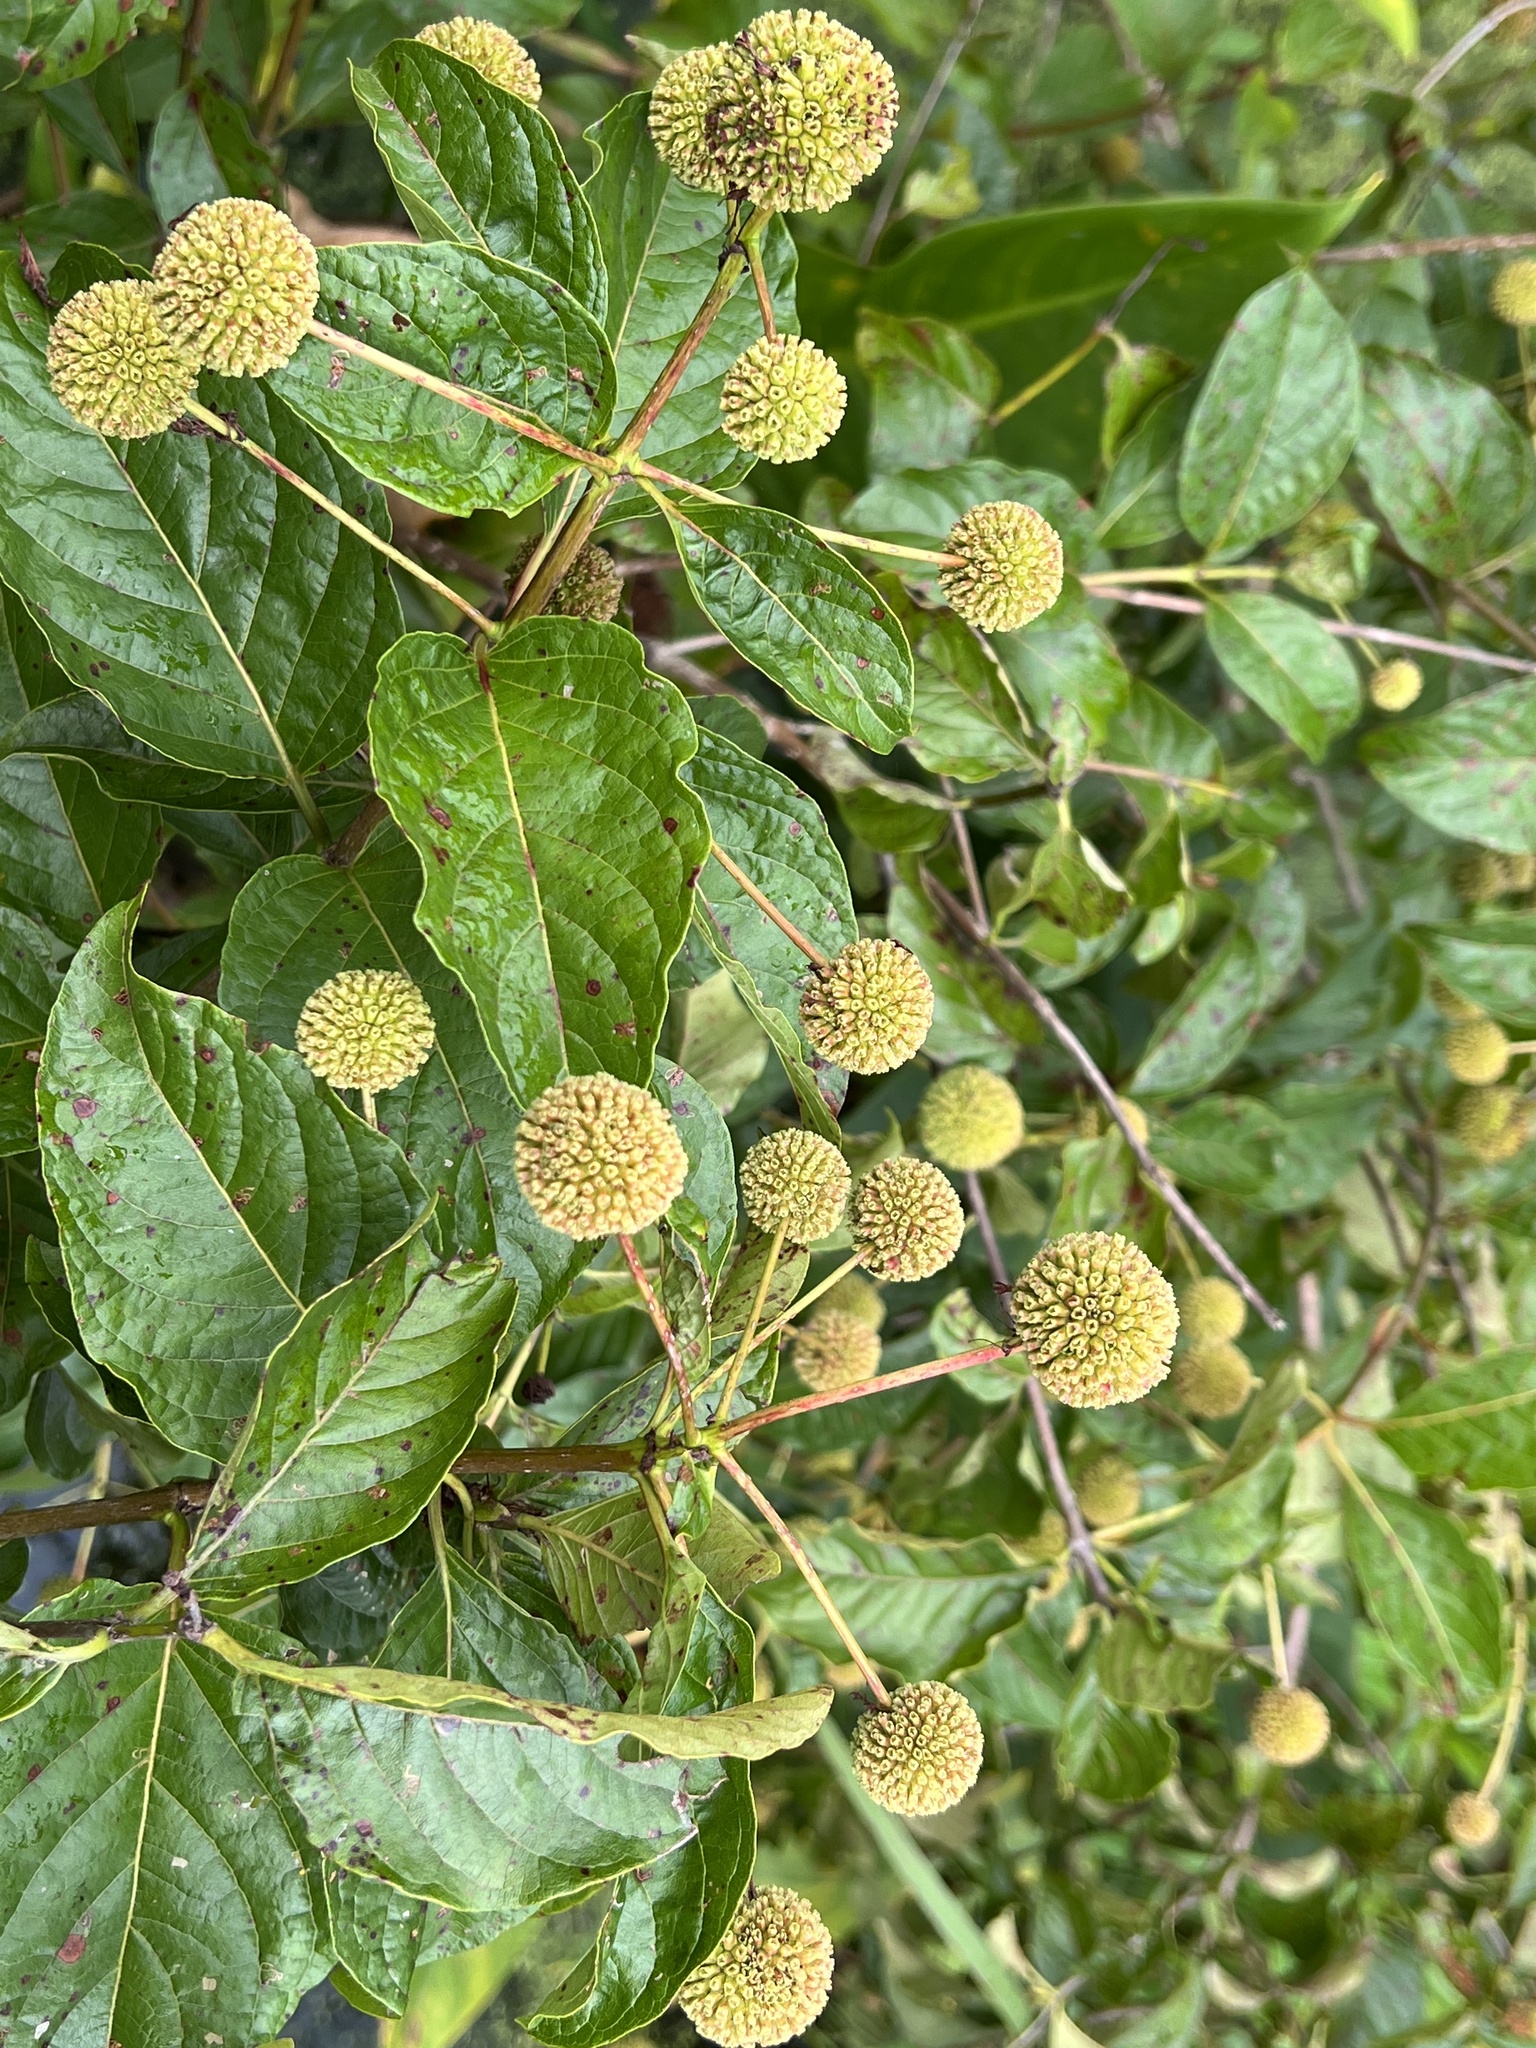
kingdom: Plantae
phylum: Tracheophyta
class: Magnoliopsida
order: Gentianales
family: Rubiaceae
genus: Cephalanthus
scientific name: Cephalanthus occidentalis
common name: Button-willow
